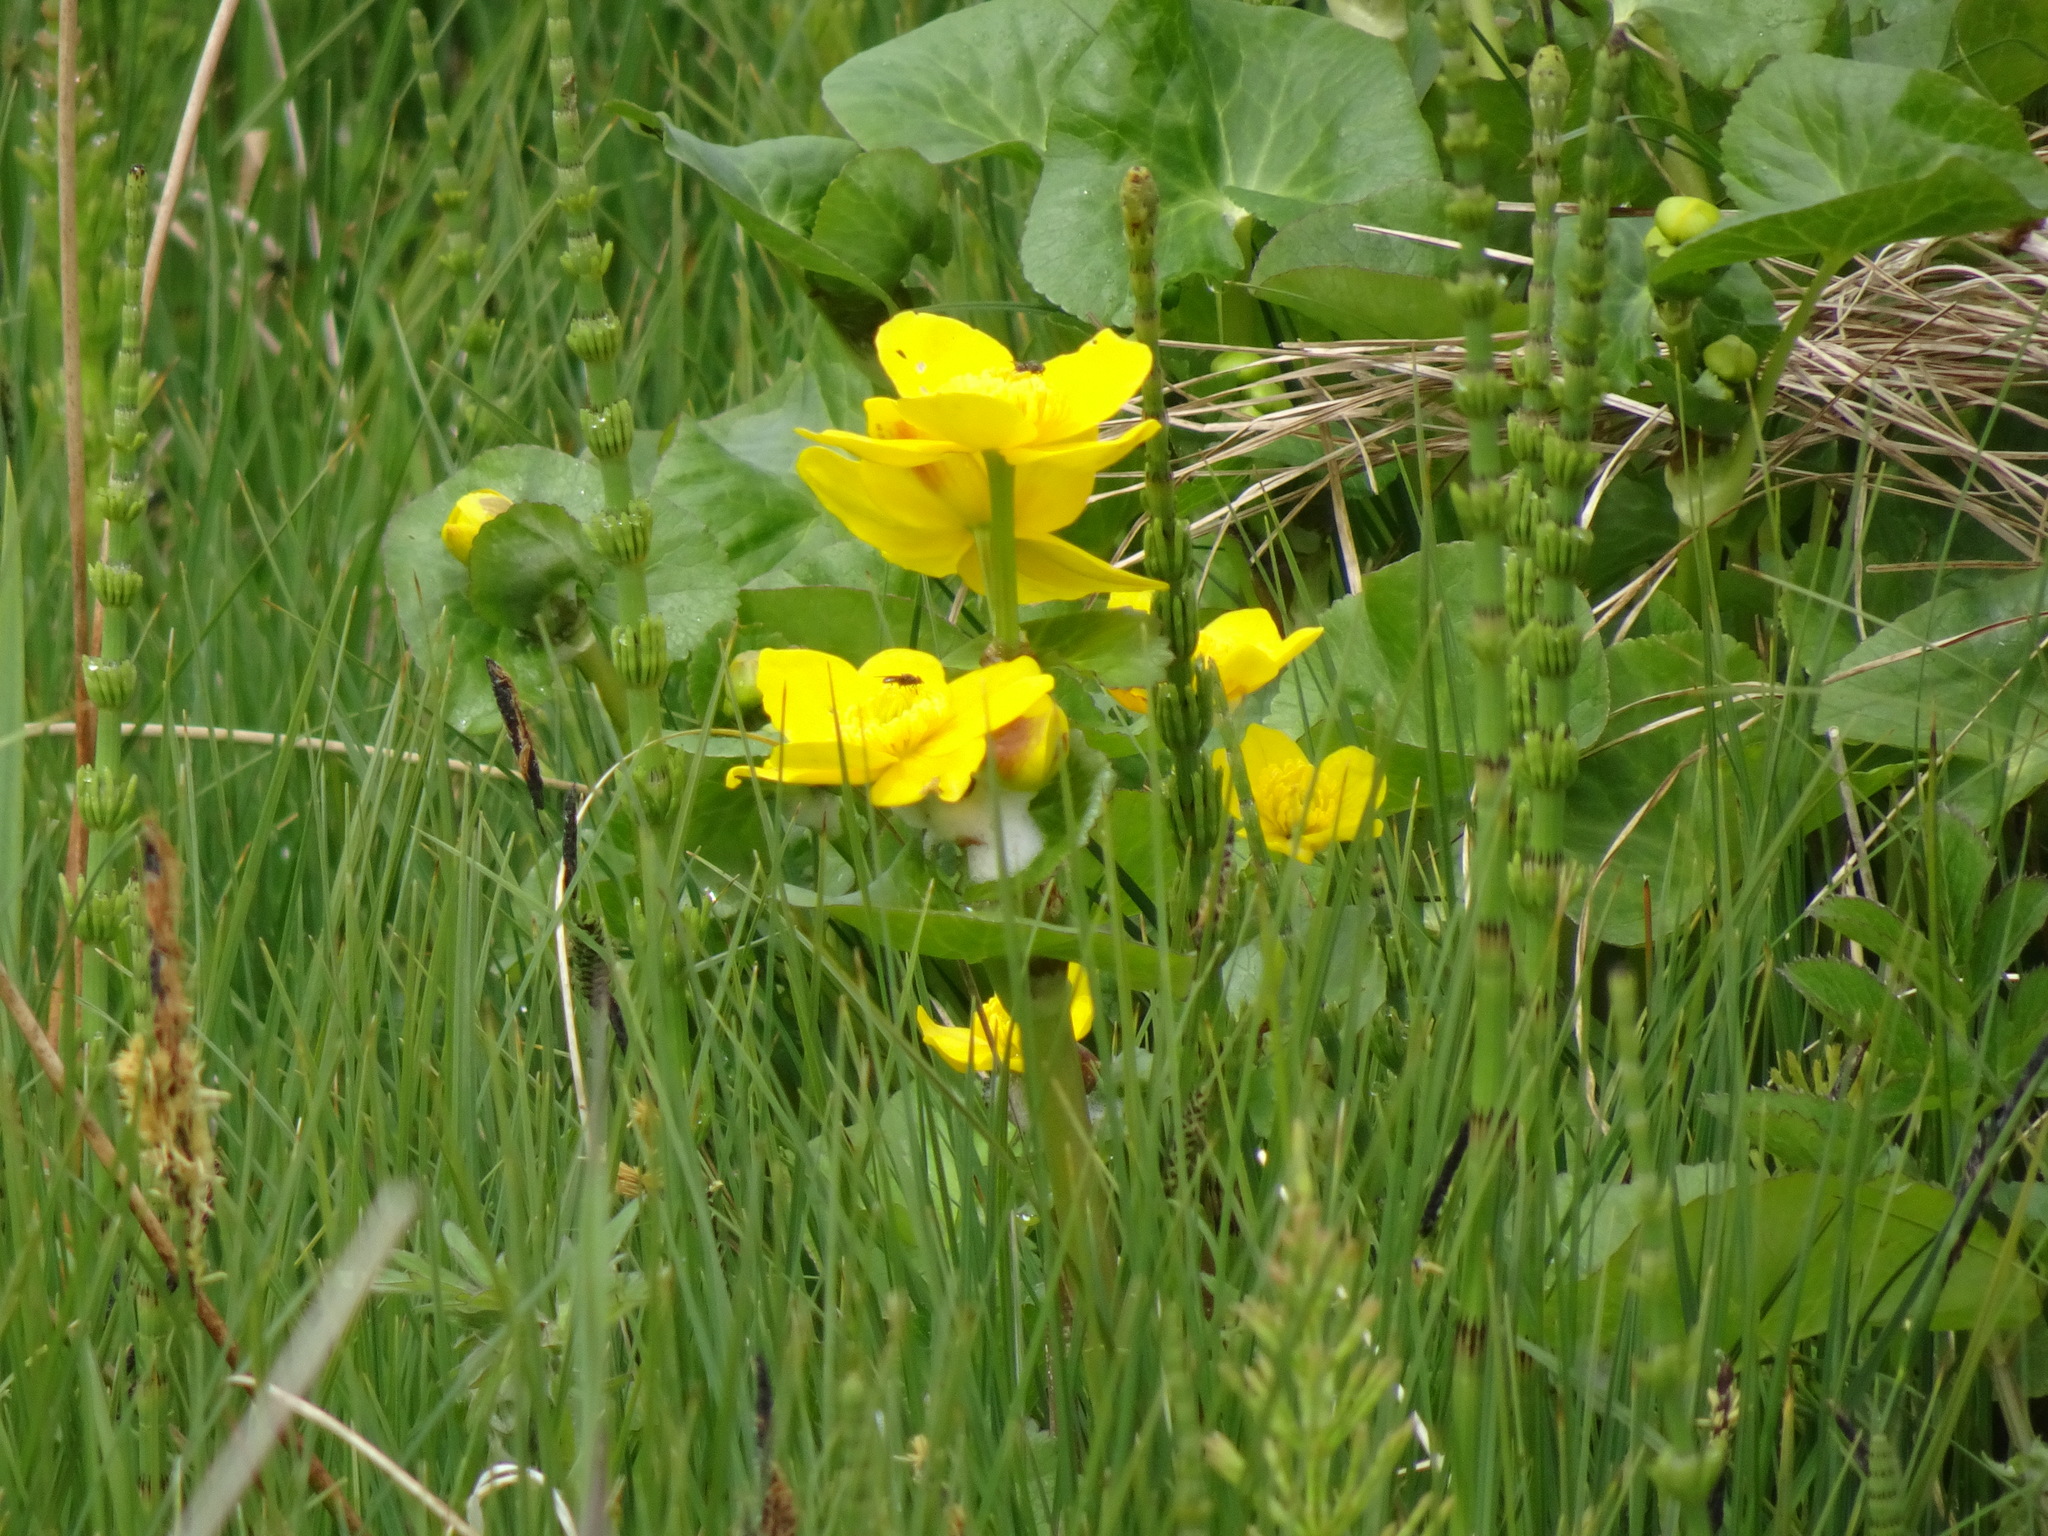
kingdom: Plantae
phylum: Tracheophyta
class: Magnoliopsida
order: Ranunculales
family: Ranunculaceae
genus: Caltha
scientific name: Caltha palustris
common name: Marsh marigold
